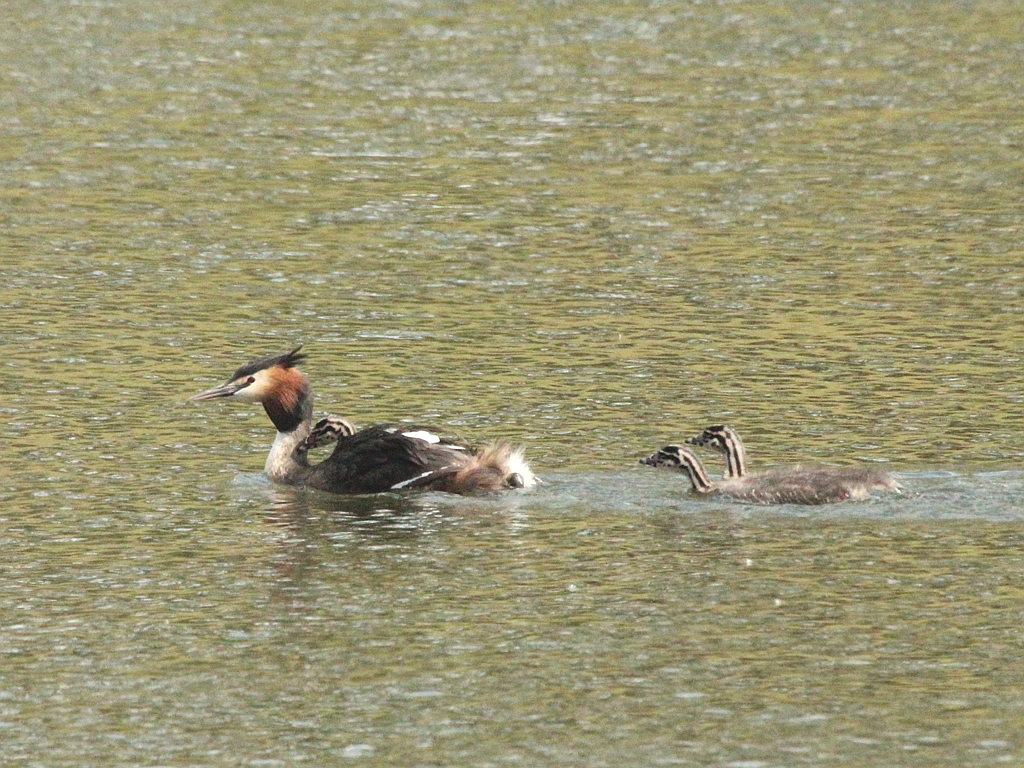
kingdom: Animalia
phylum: Chordata
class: Aves
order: Podicipediformes
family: Podicipedidae
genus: Podiceps
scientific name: Podiceps cristatus
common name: Great crested grebe
